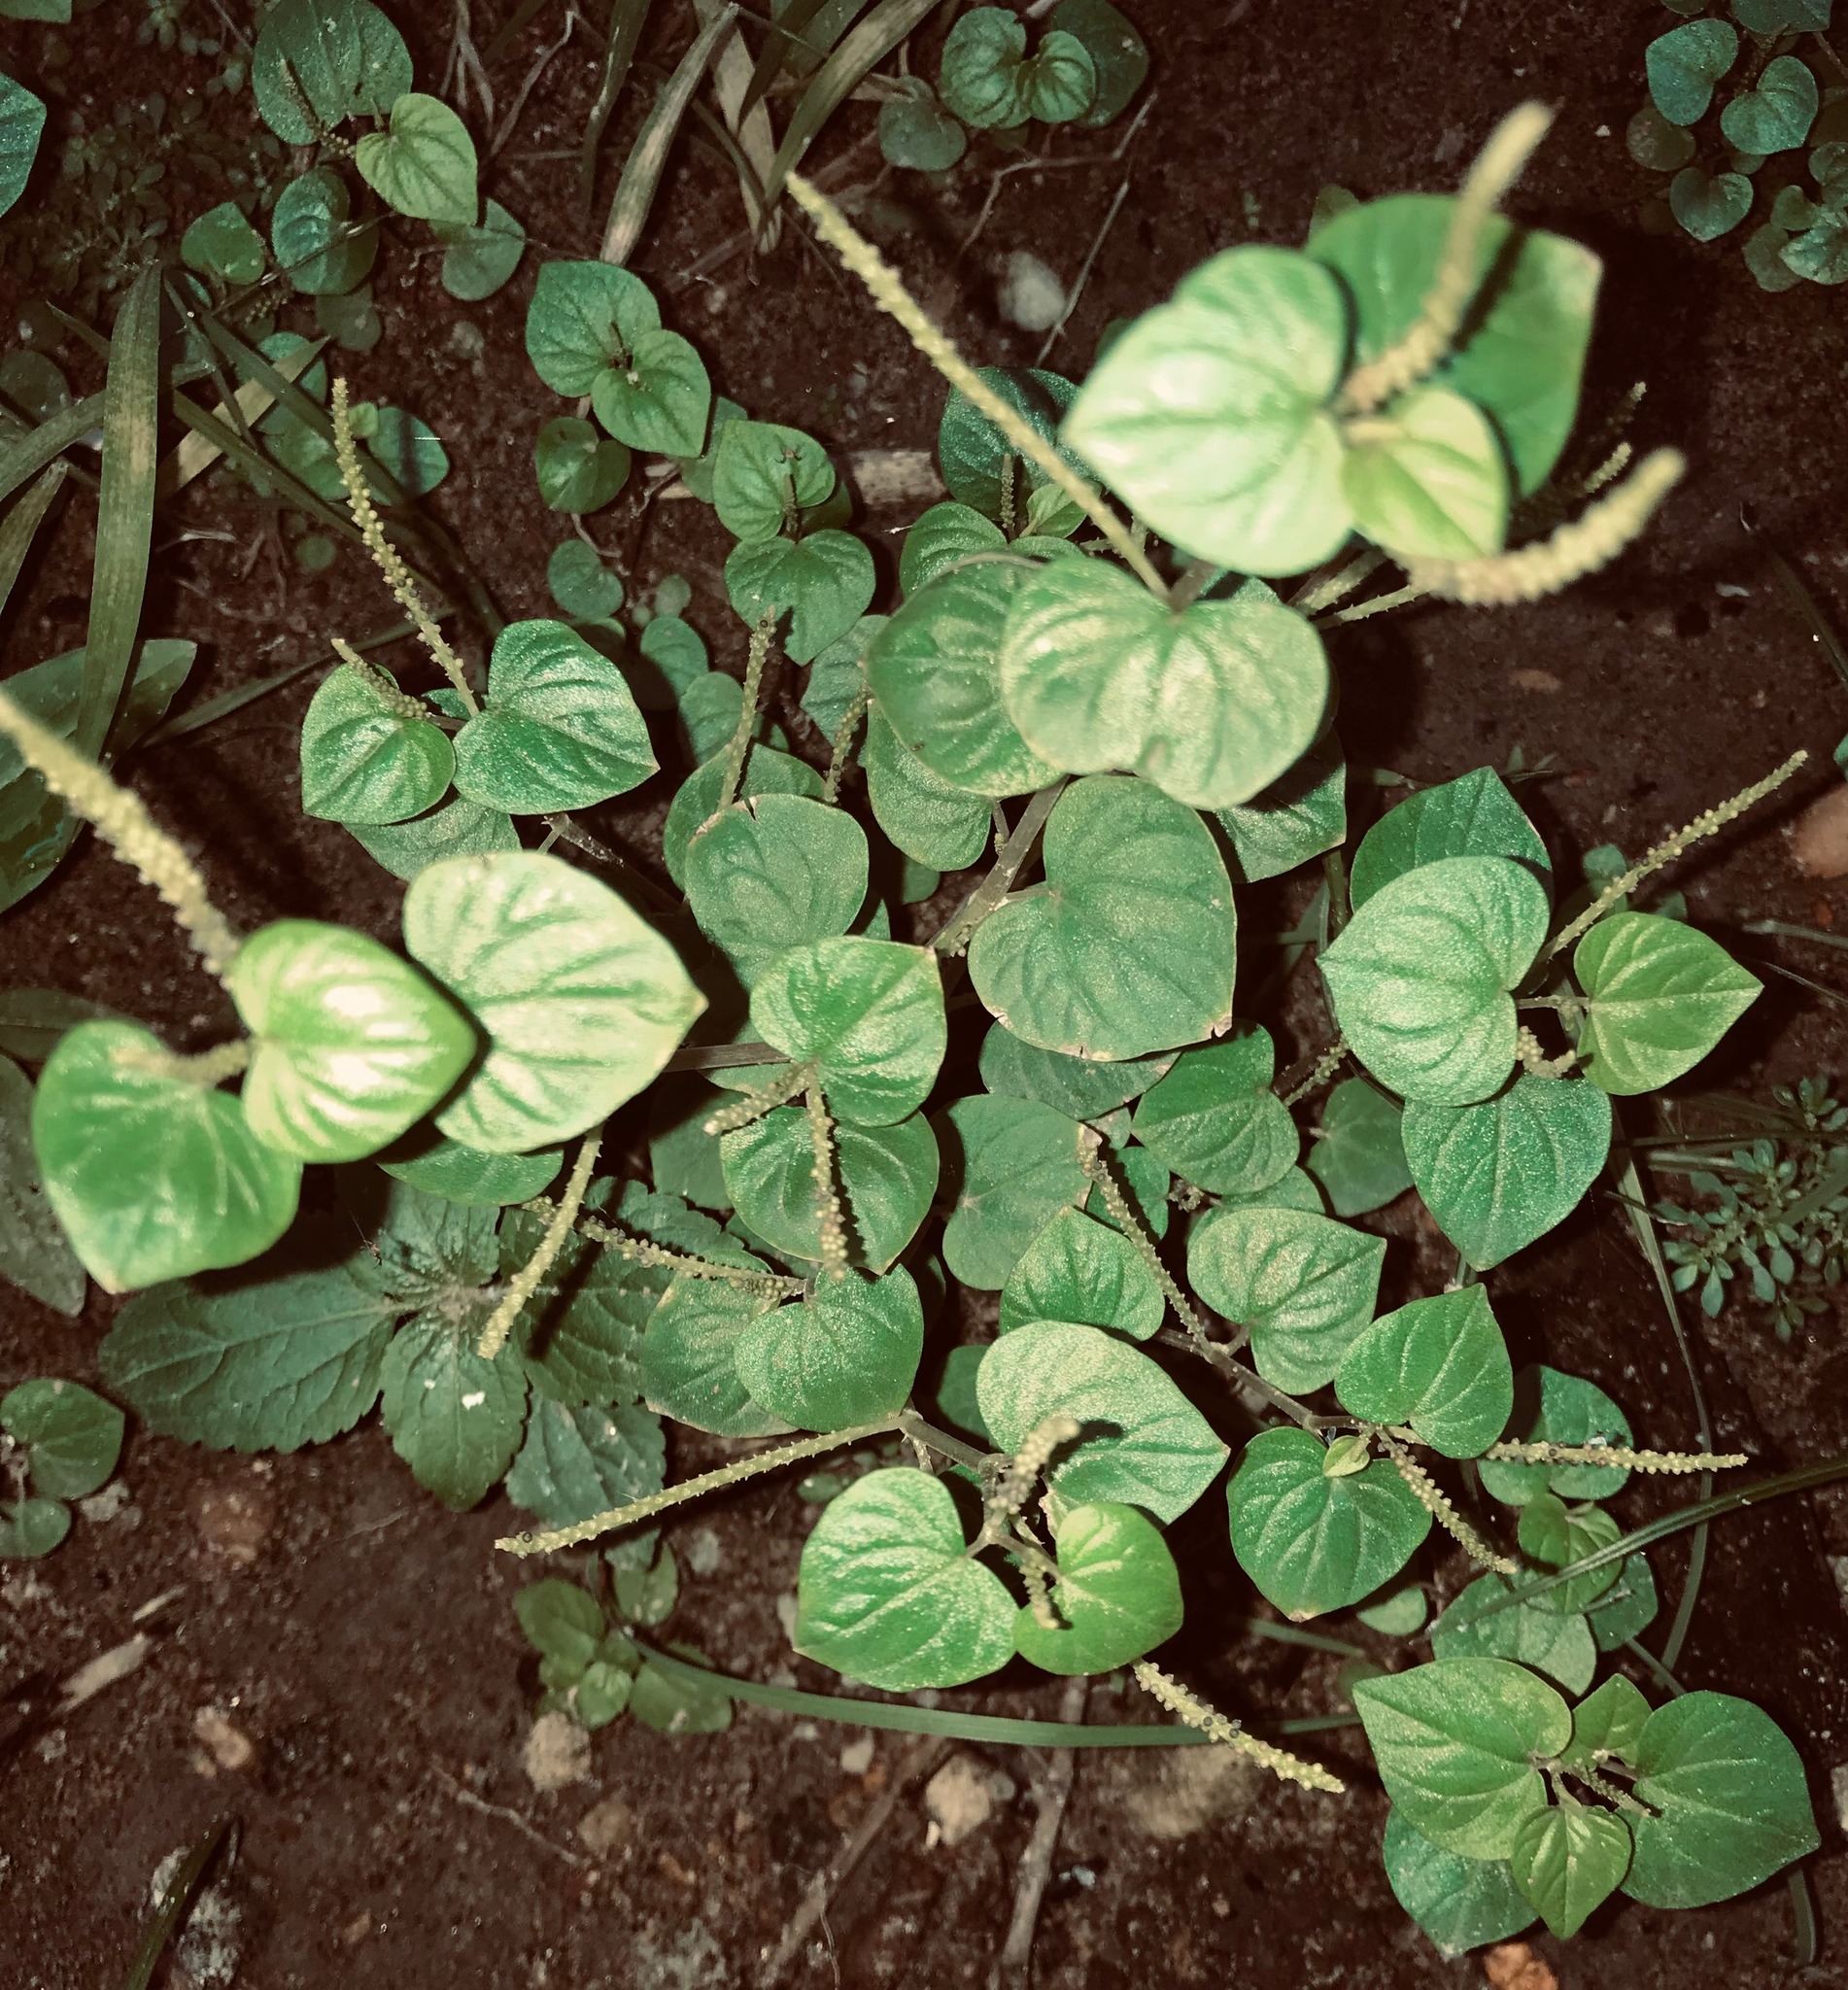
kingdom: Plantae
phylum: Tracheophyta
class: Magnoliopsida
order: Piperales
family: Piperaceae
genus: Peperomia
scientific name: Peperomia pellucida
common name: Man to man
